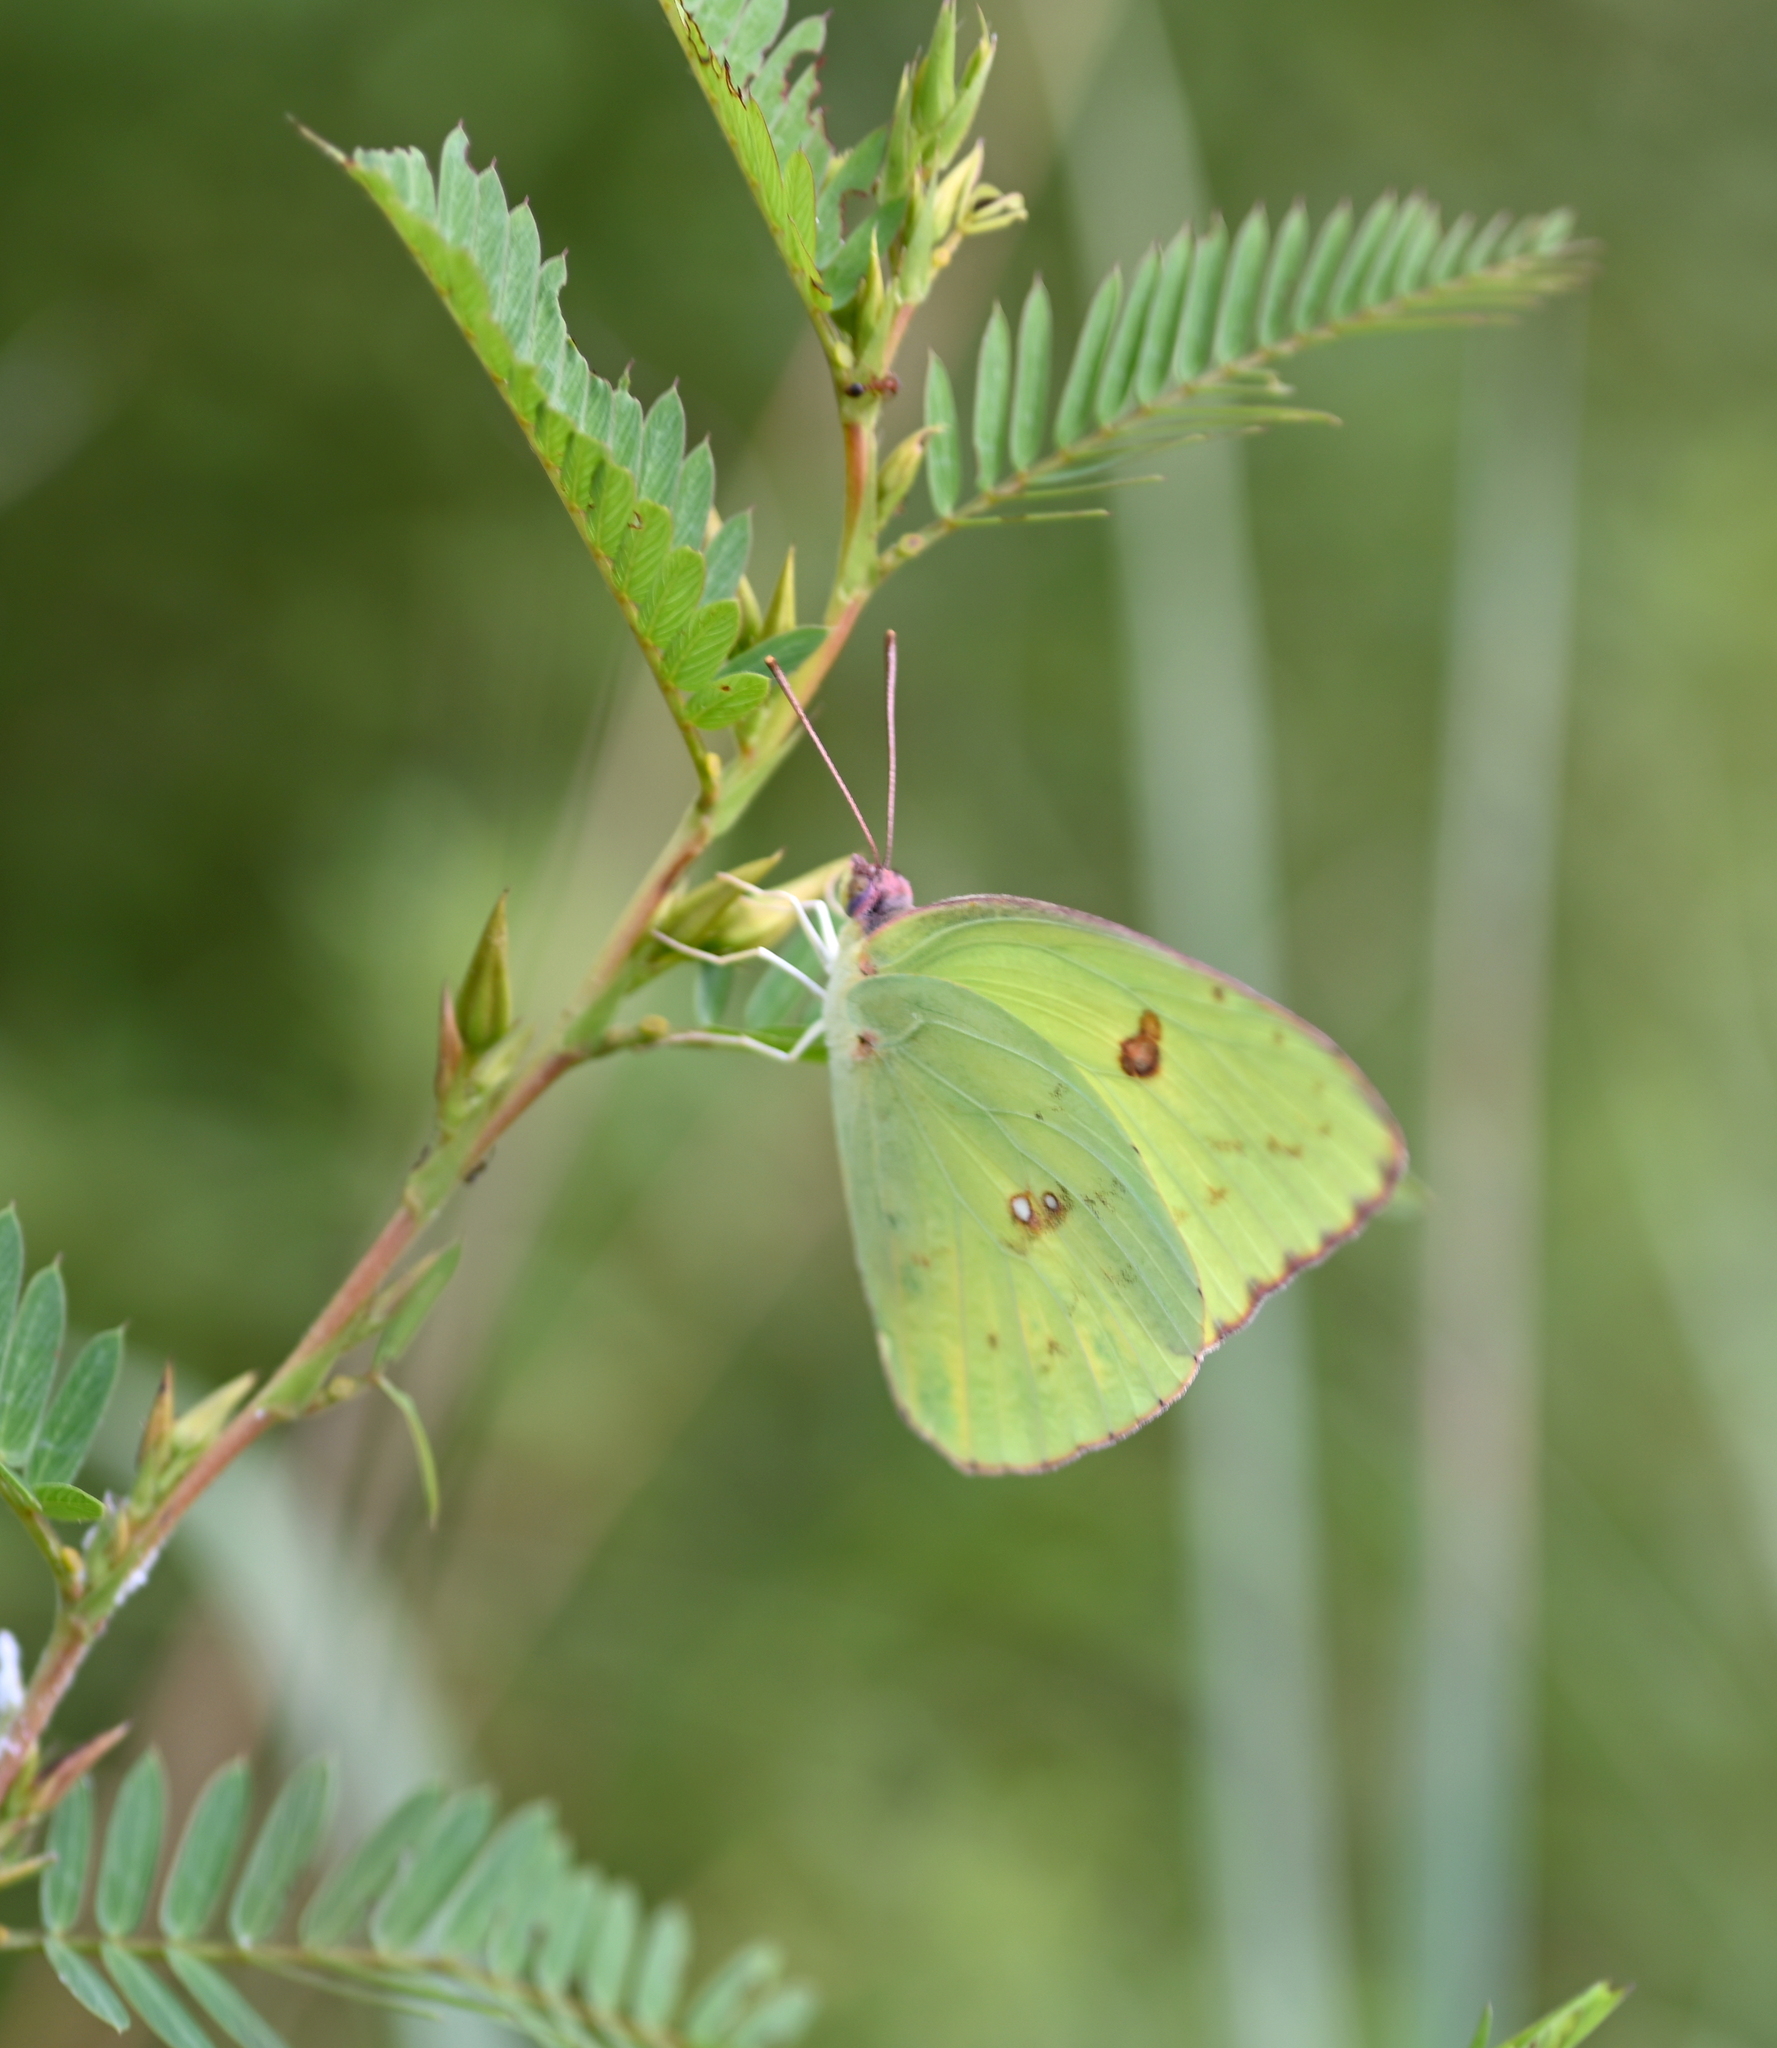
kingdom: Animalia
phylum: Arthropoda
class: Insecta
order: Lepidoptera
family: Pieridae
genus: Phoebis
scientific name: Phoebis sennae
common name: Cloudless sulphur
